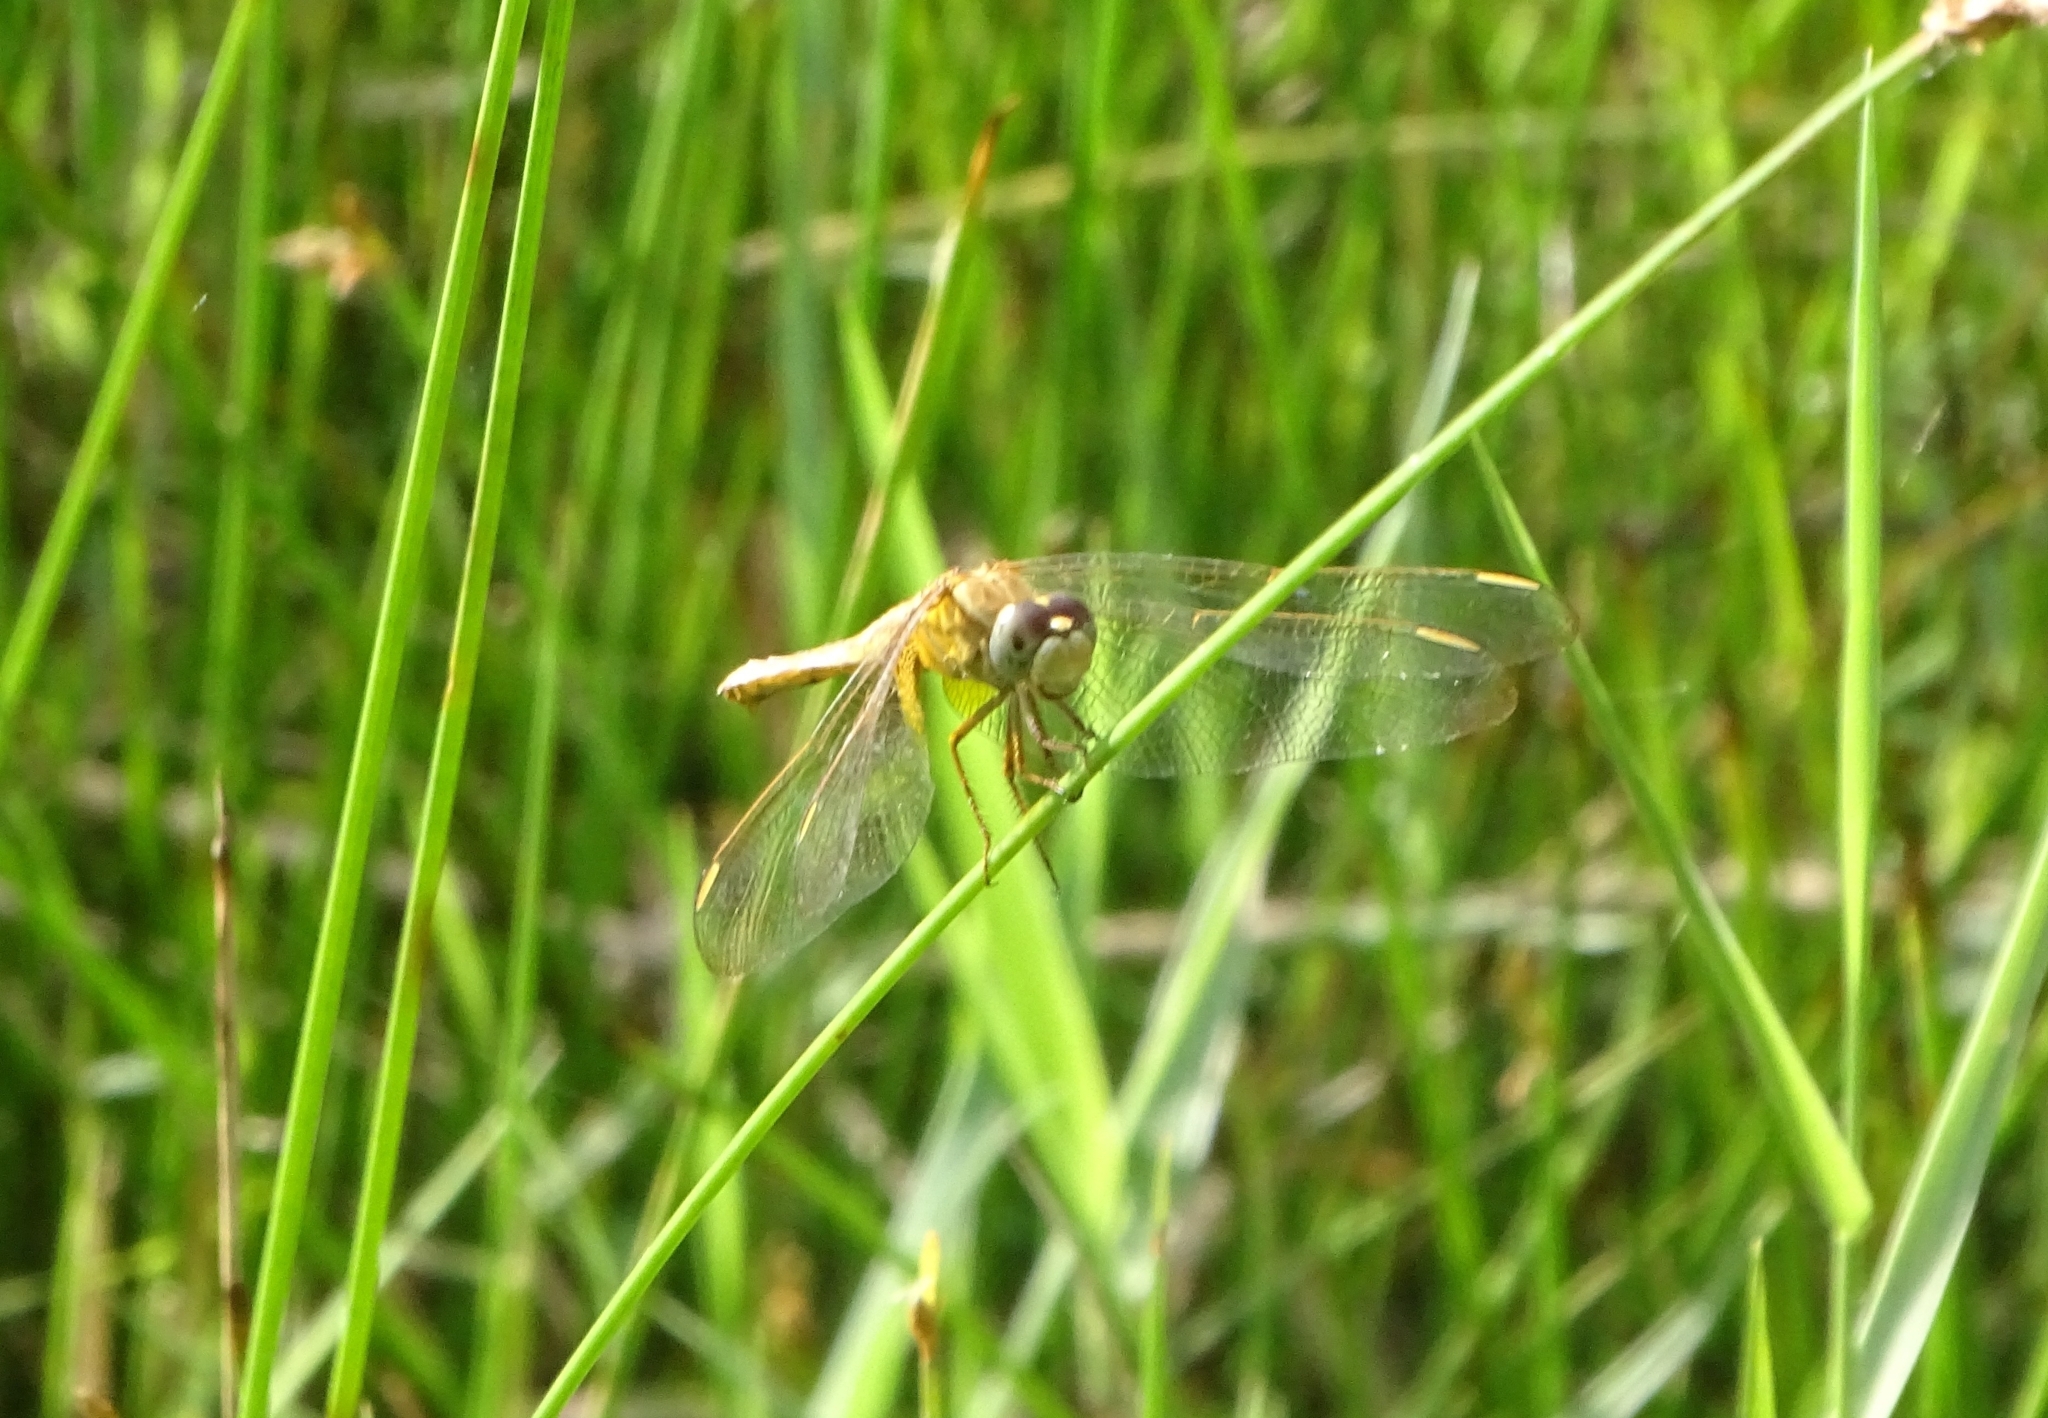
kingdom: Animalia
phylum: Arthropoda
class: Insecta
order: Odonata
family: Libellulidae
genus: Crocothemis
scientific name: Crocothemis servilia
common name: Scarlet skimmer
